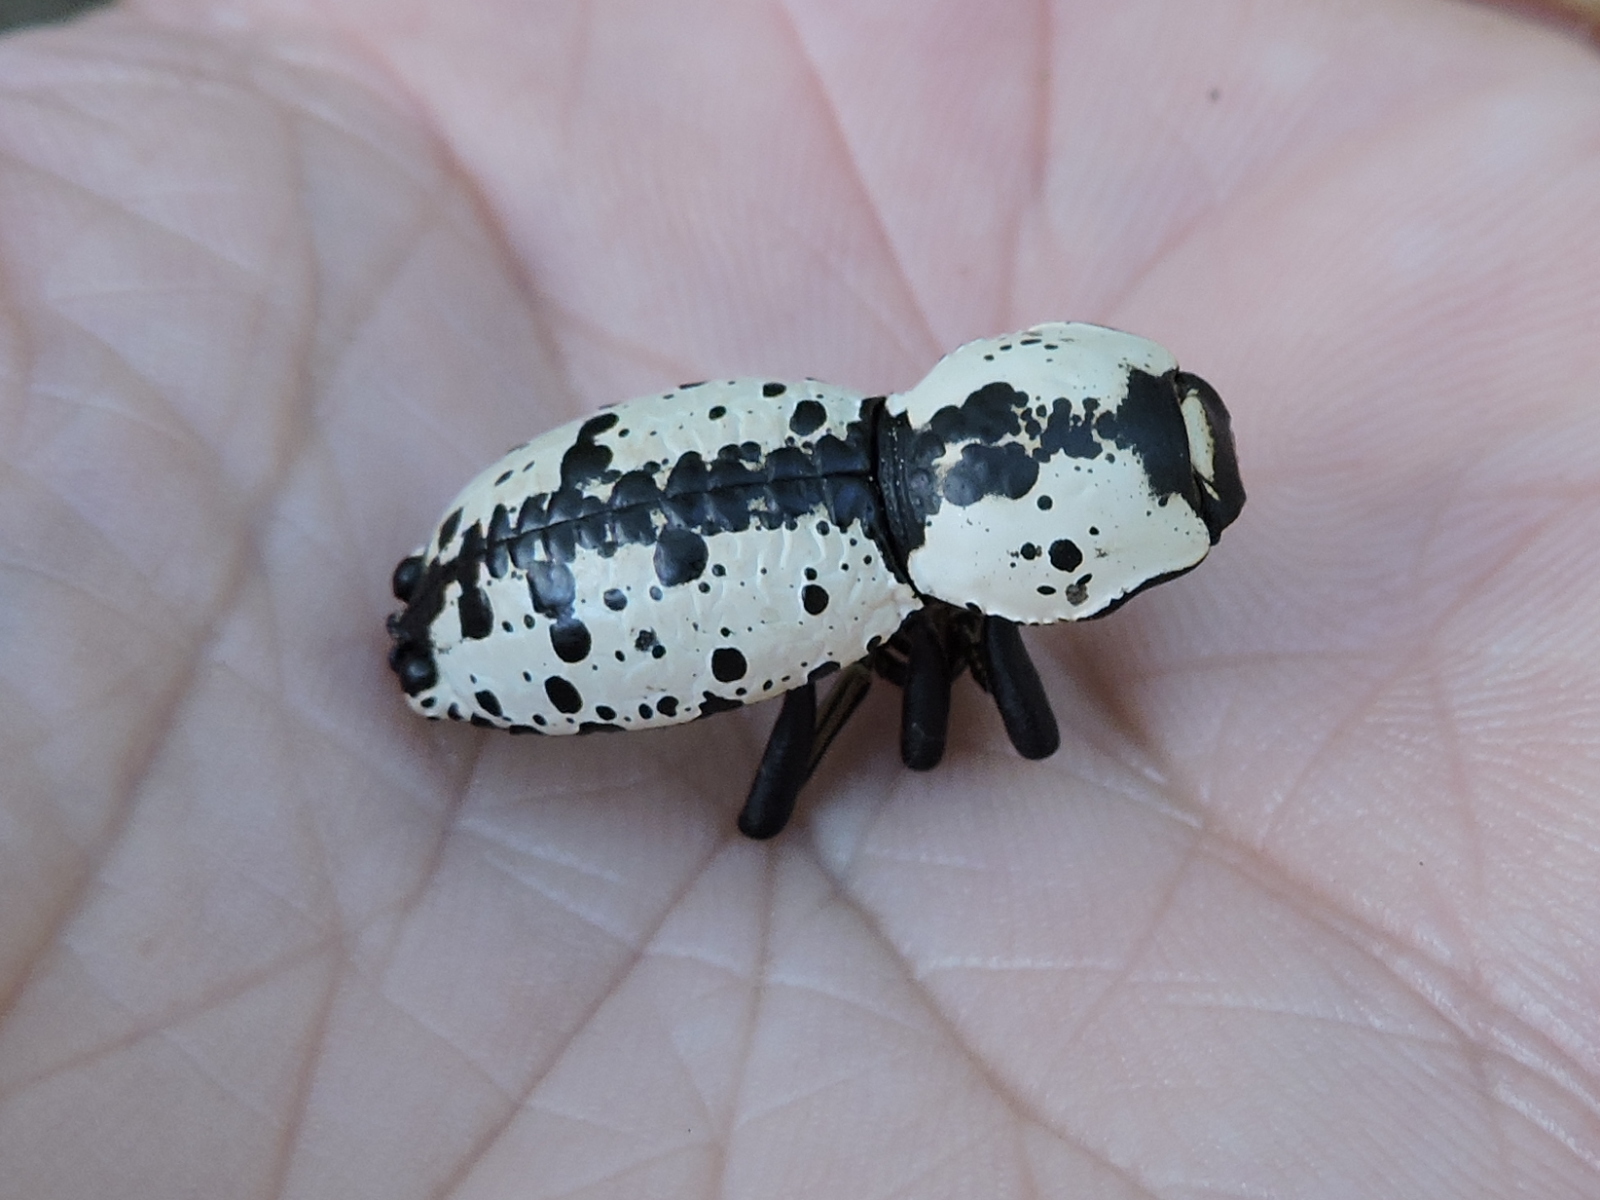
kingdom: Animalia
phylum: Arthropoda
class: Insecta
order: Coleoptera
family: Zopheridae
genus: Zopherus
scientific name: Zopherus nodulosus
